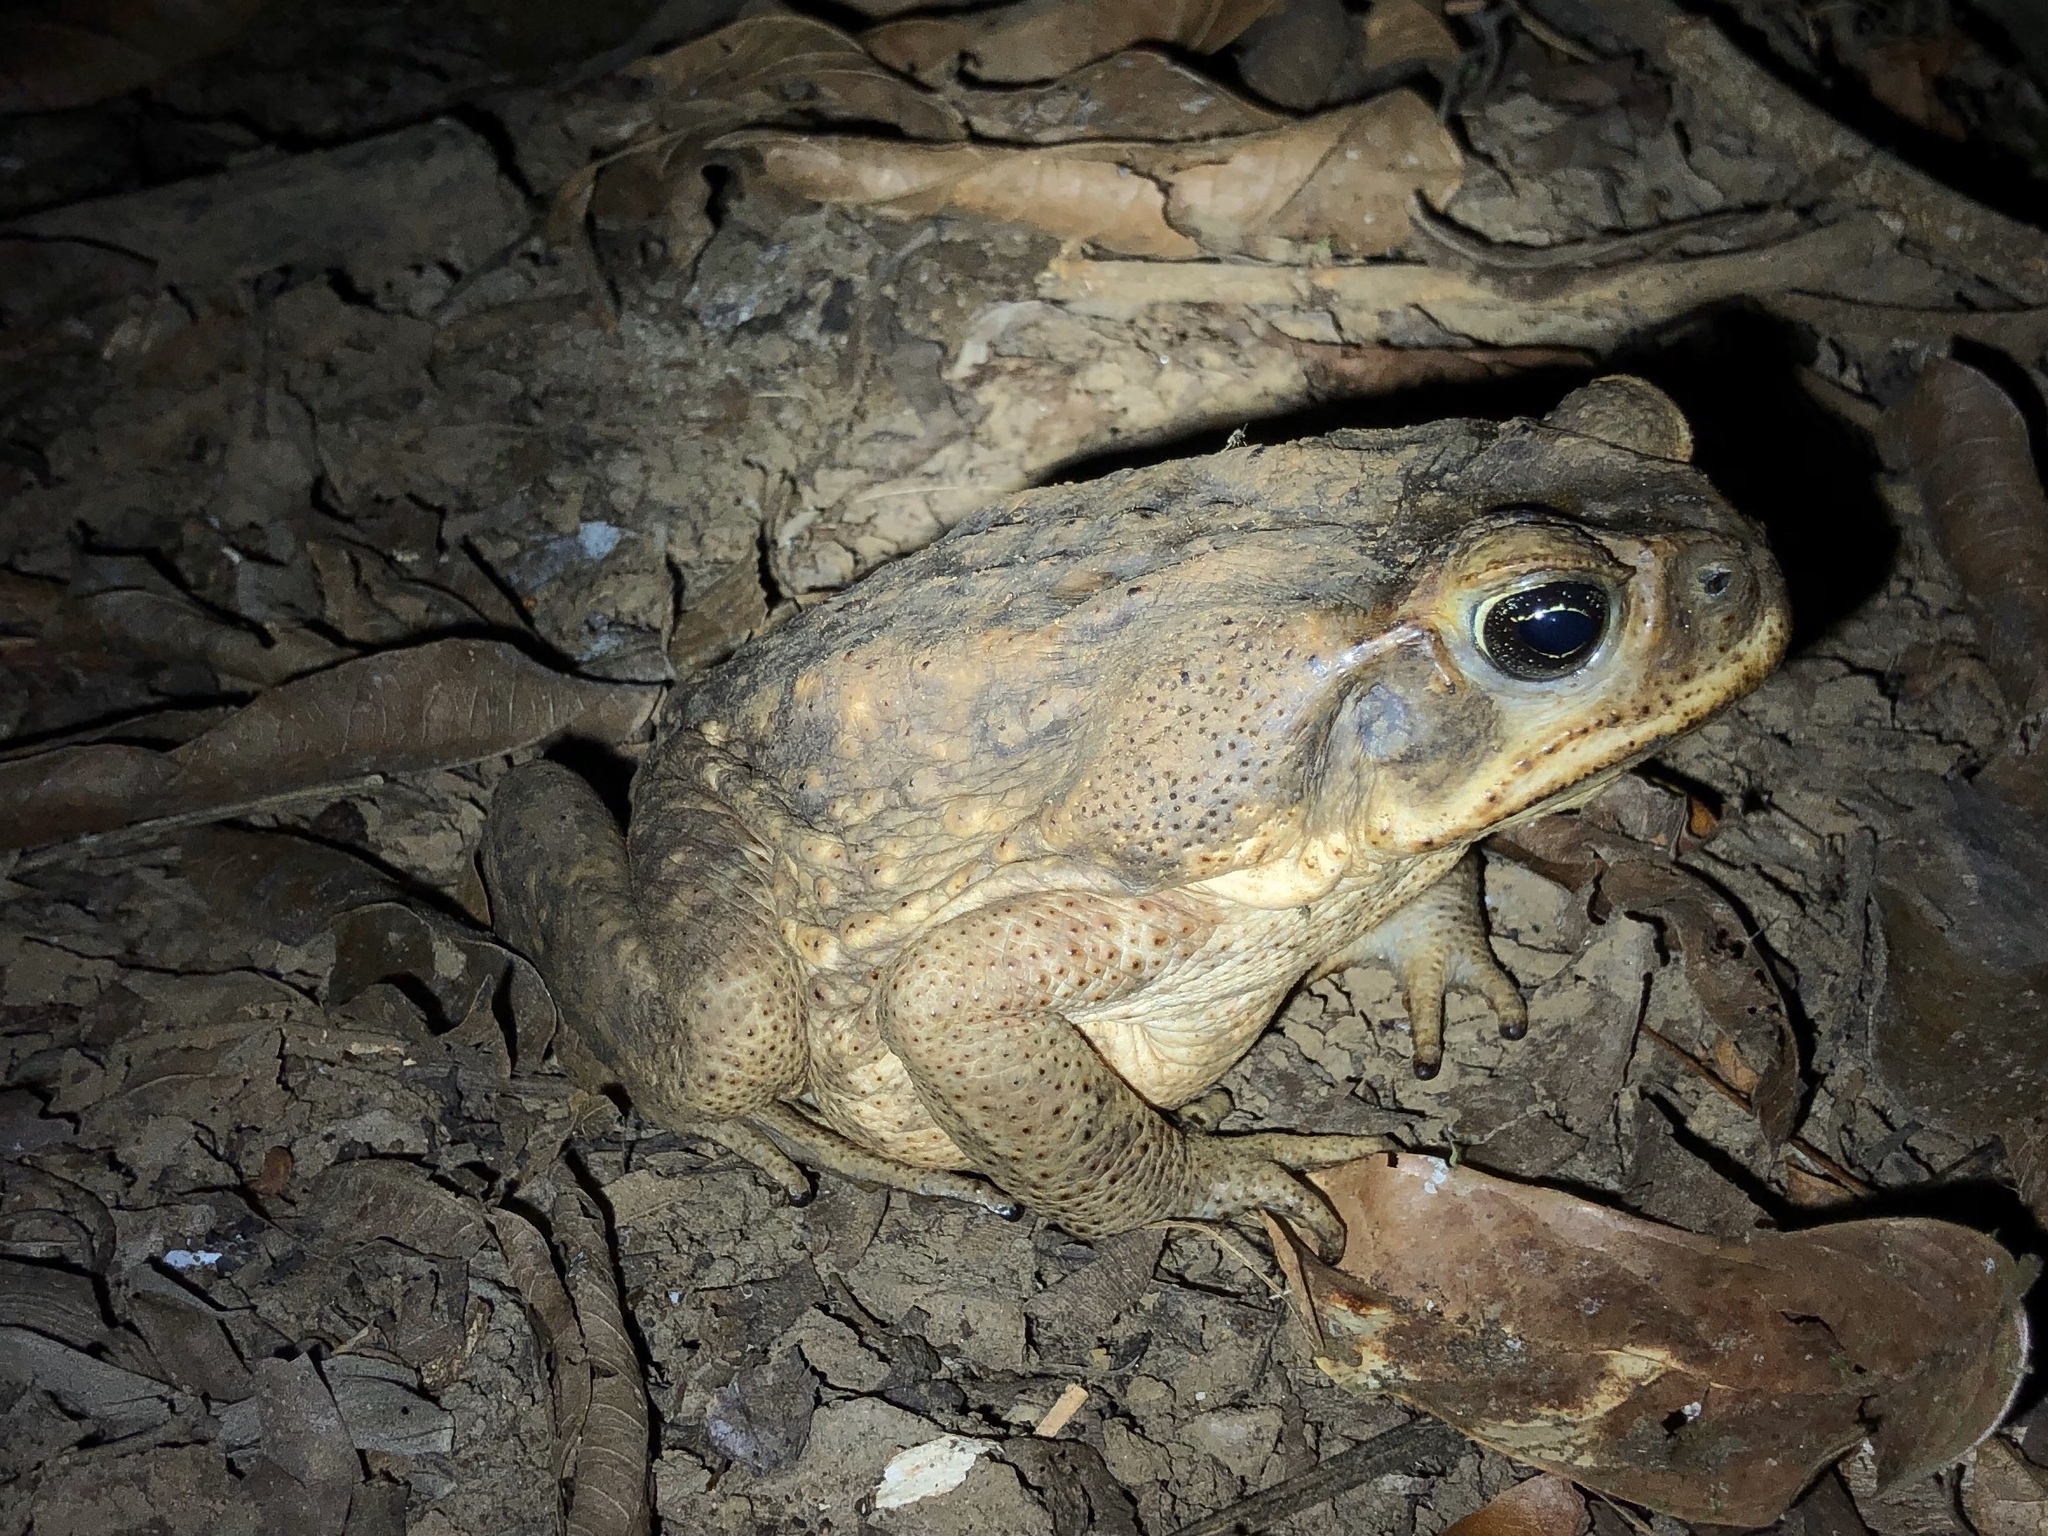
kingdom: Animalia
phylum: Chordata
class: Amphibia
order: Anura
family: Bufonidae
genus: Rhinella
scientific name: Rhinella horribilis
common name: Mesoamerican cane toad
